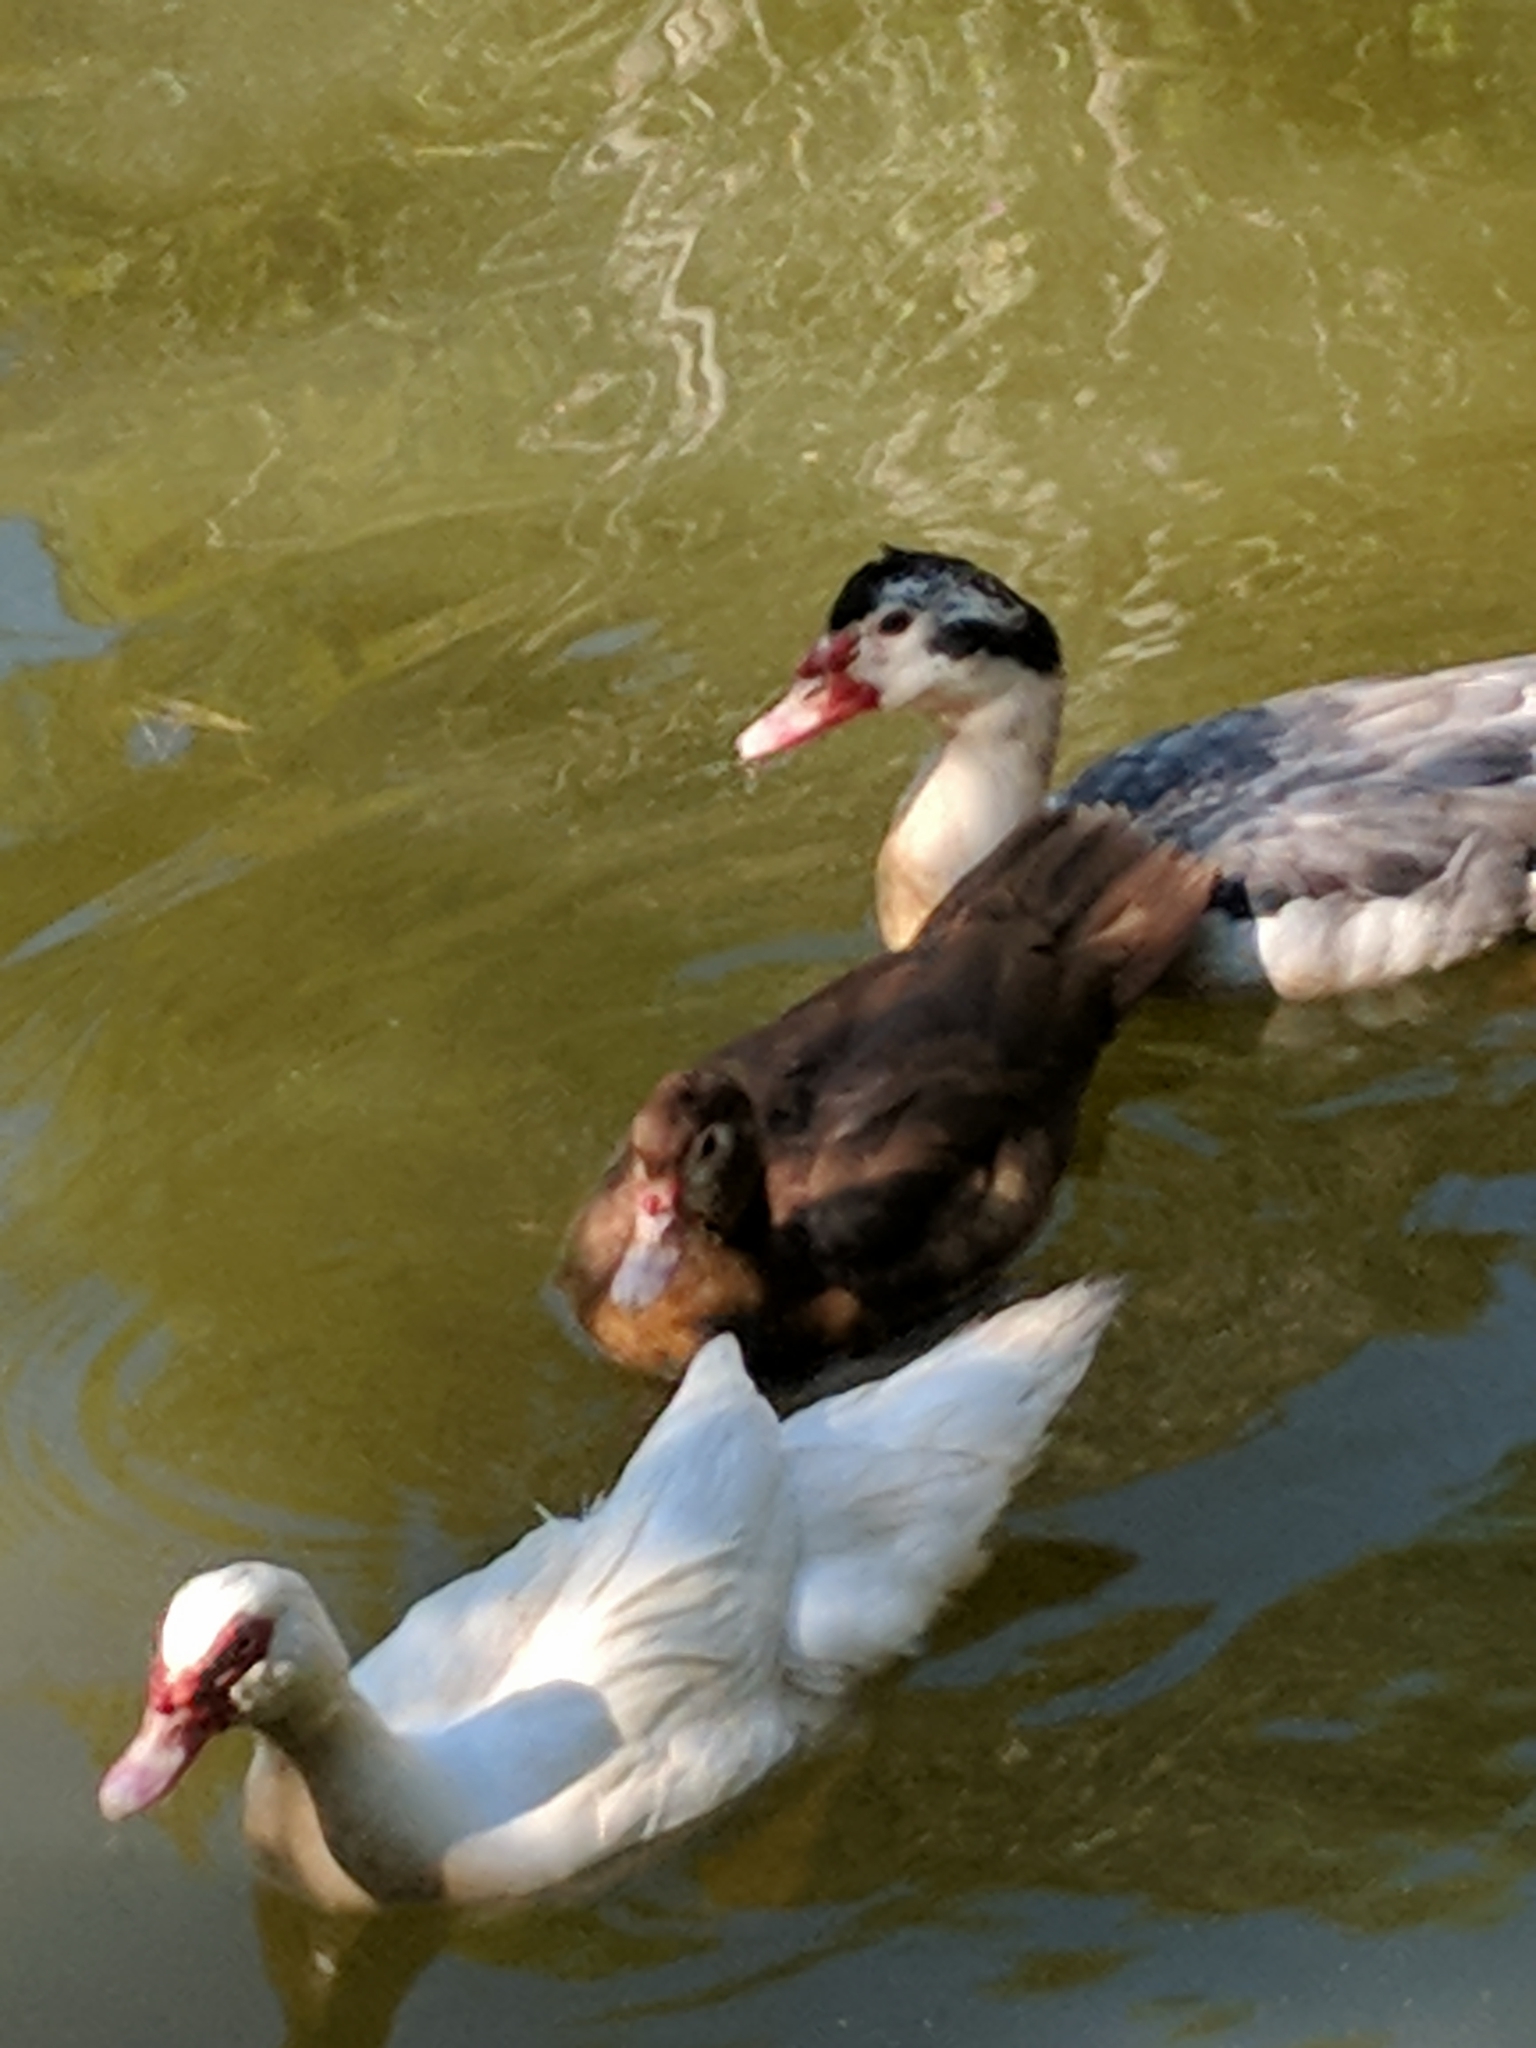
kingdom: Animalia
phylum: Chordata
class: Aves
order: Anseriformes
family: Anatidae
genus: Cairina
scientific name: Cairina moschata
